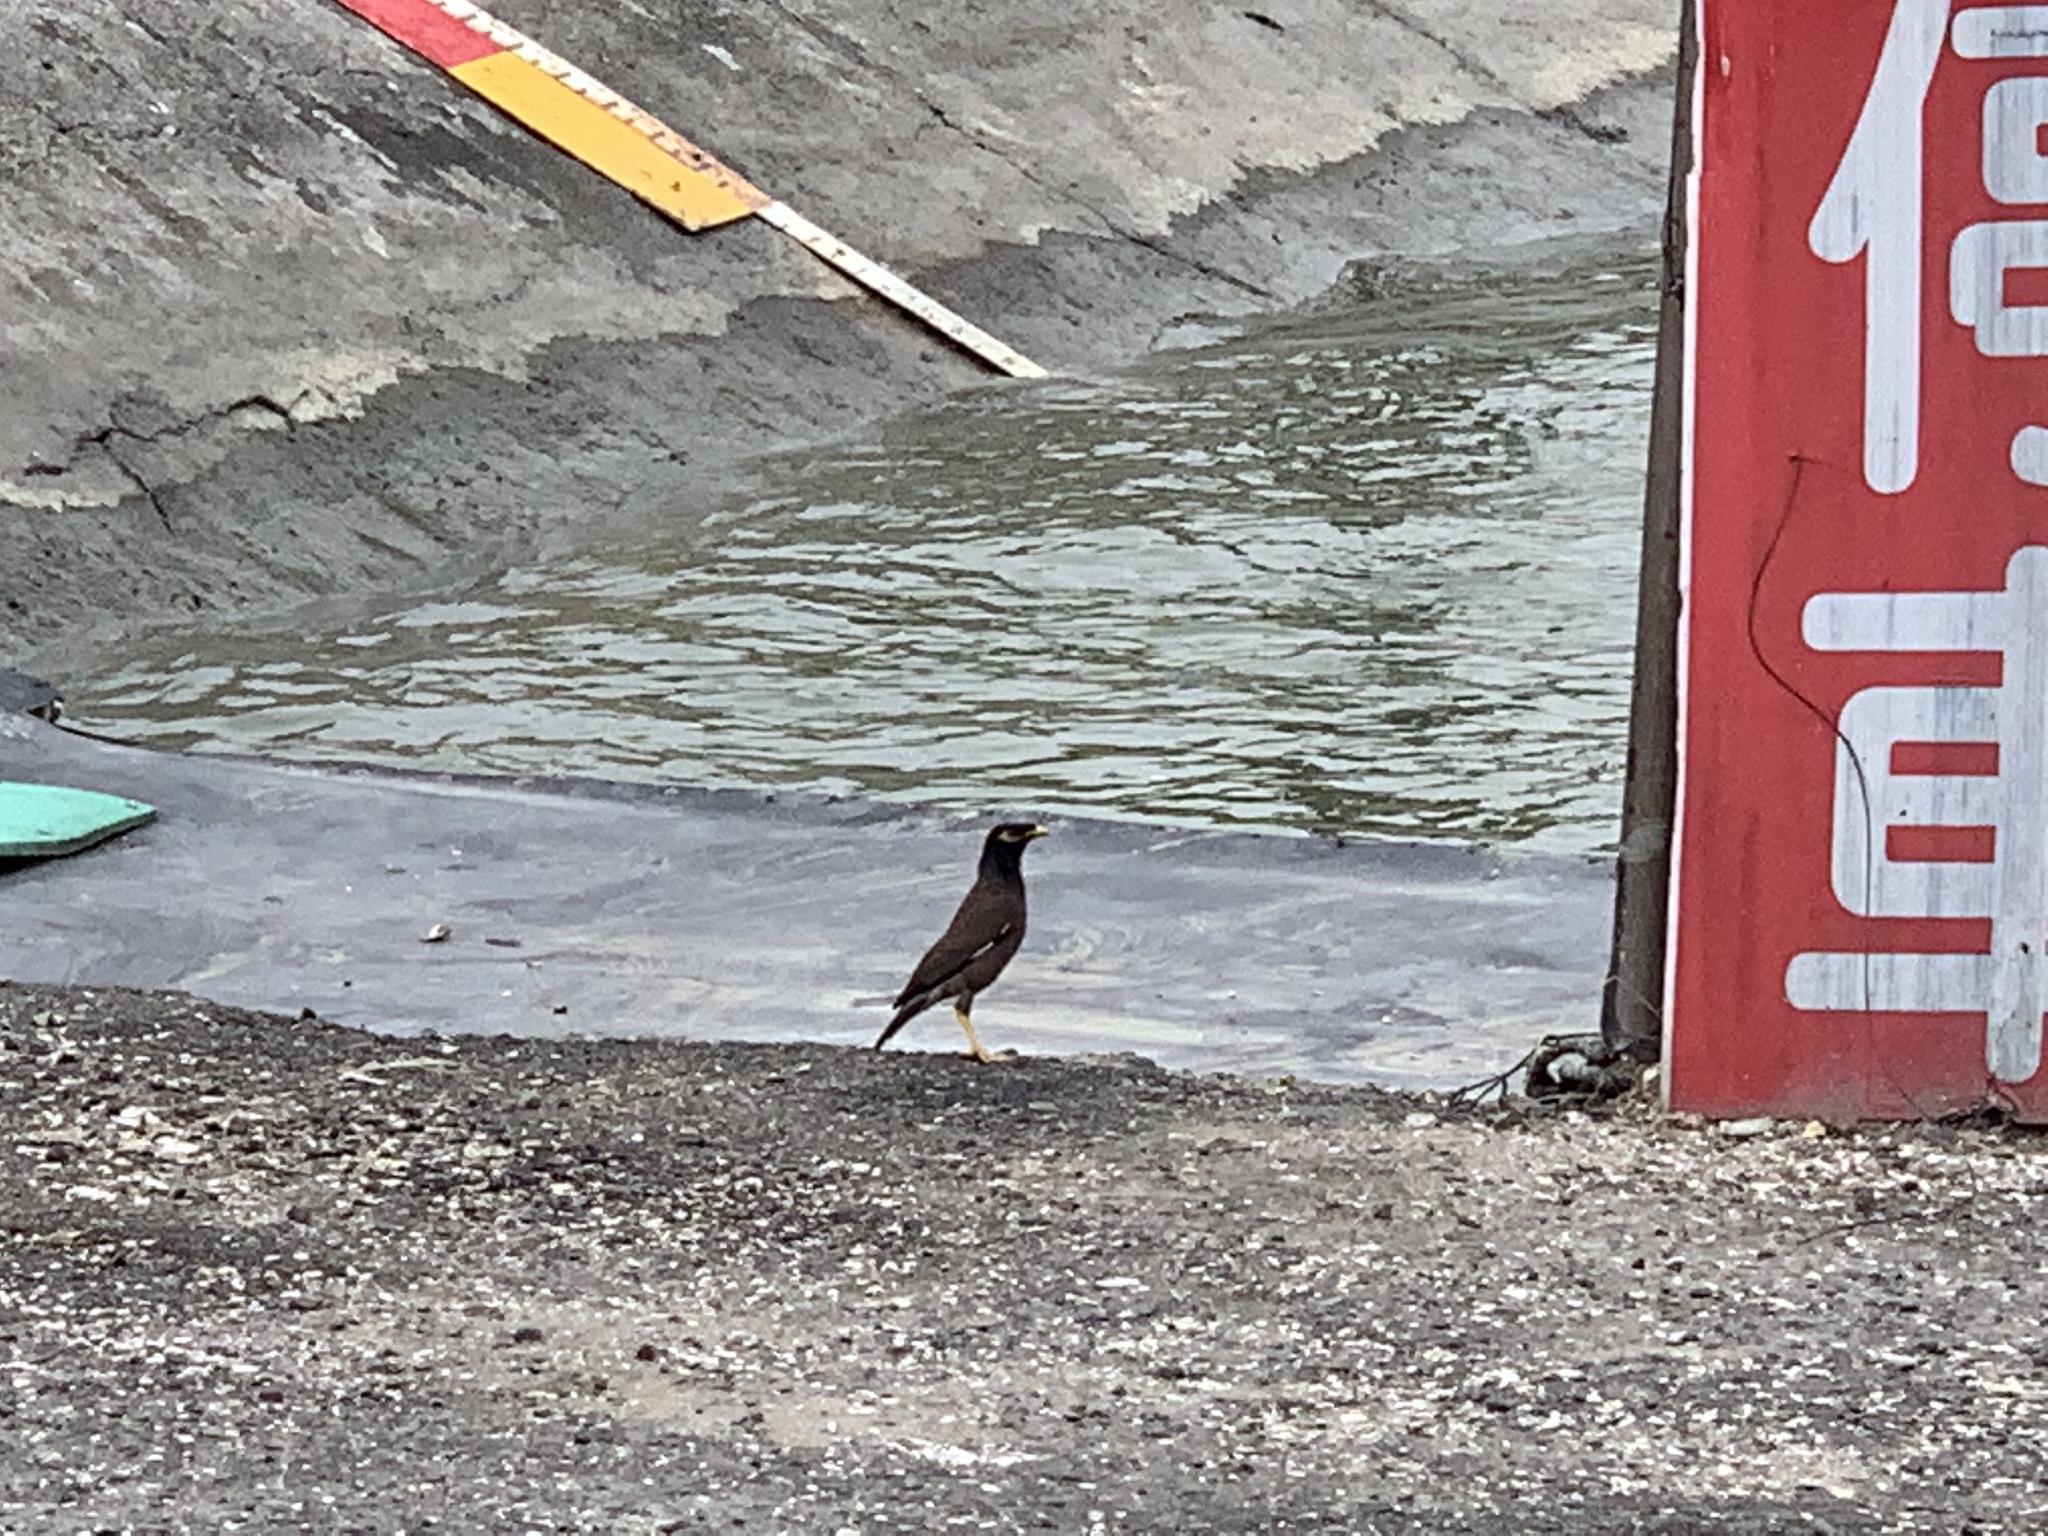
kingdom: Animalia
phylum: Chordata
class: Aves
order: Passeriformes
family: Sturnidae
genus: Acridotheres
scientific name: Acridotheres tristis
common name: Common myna
